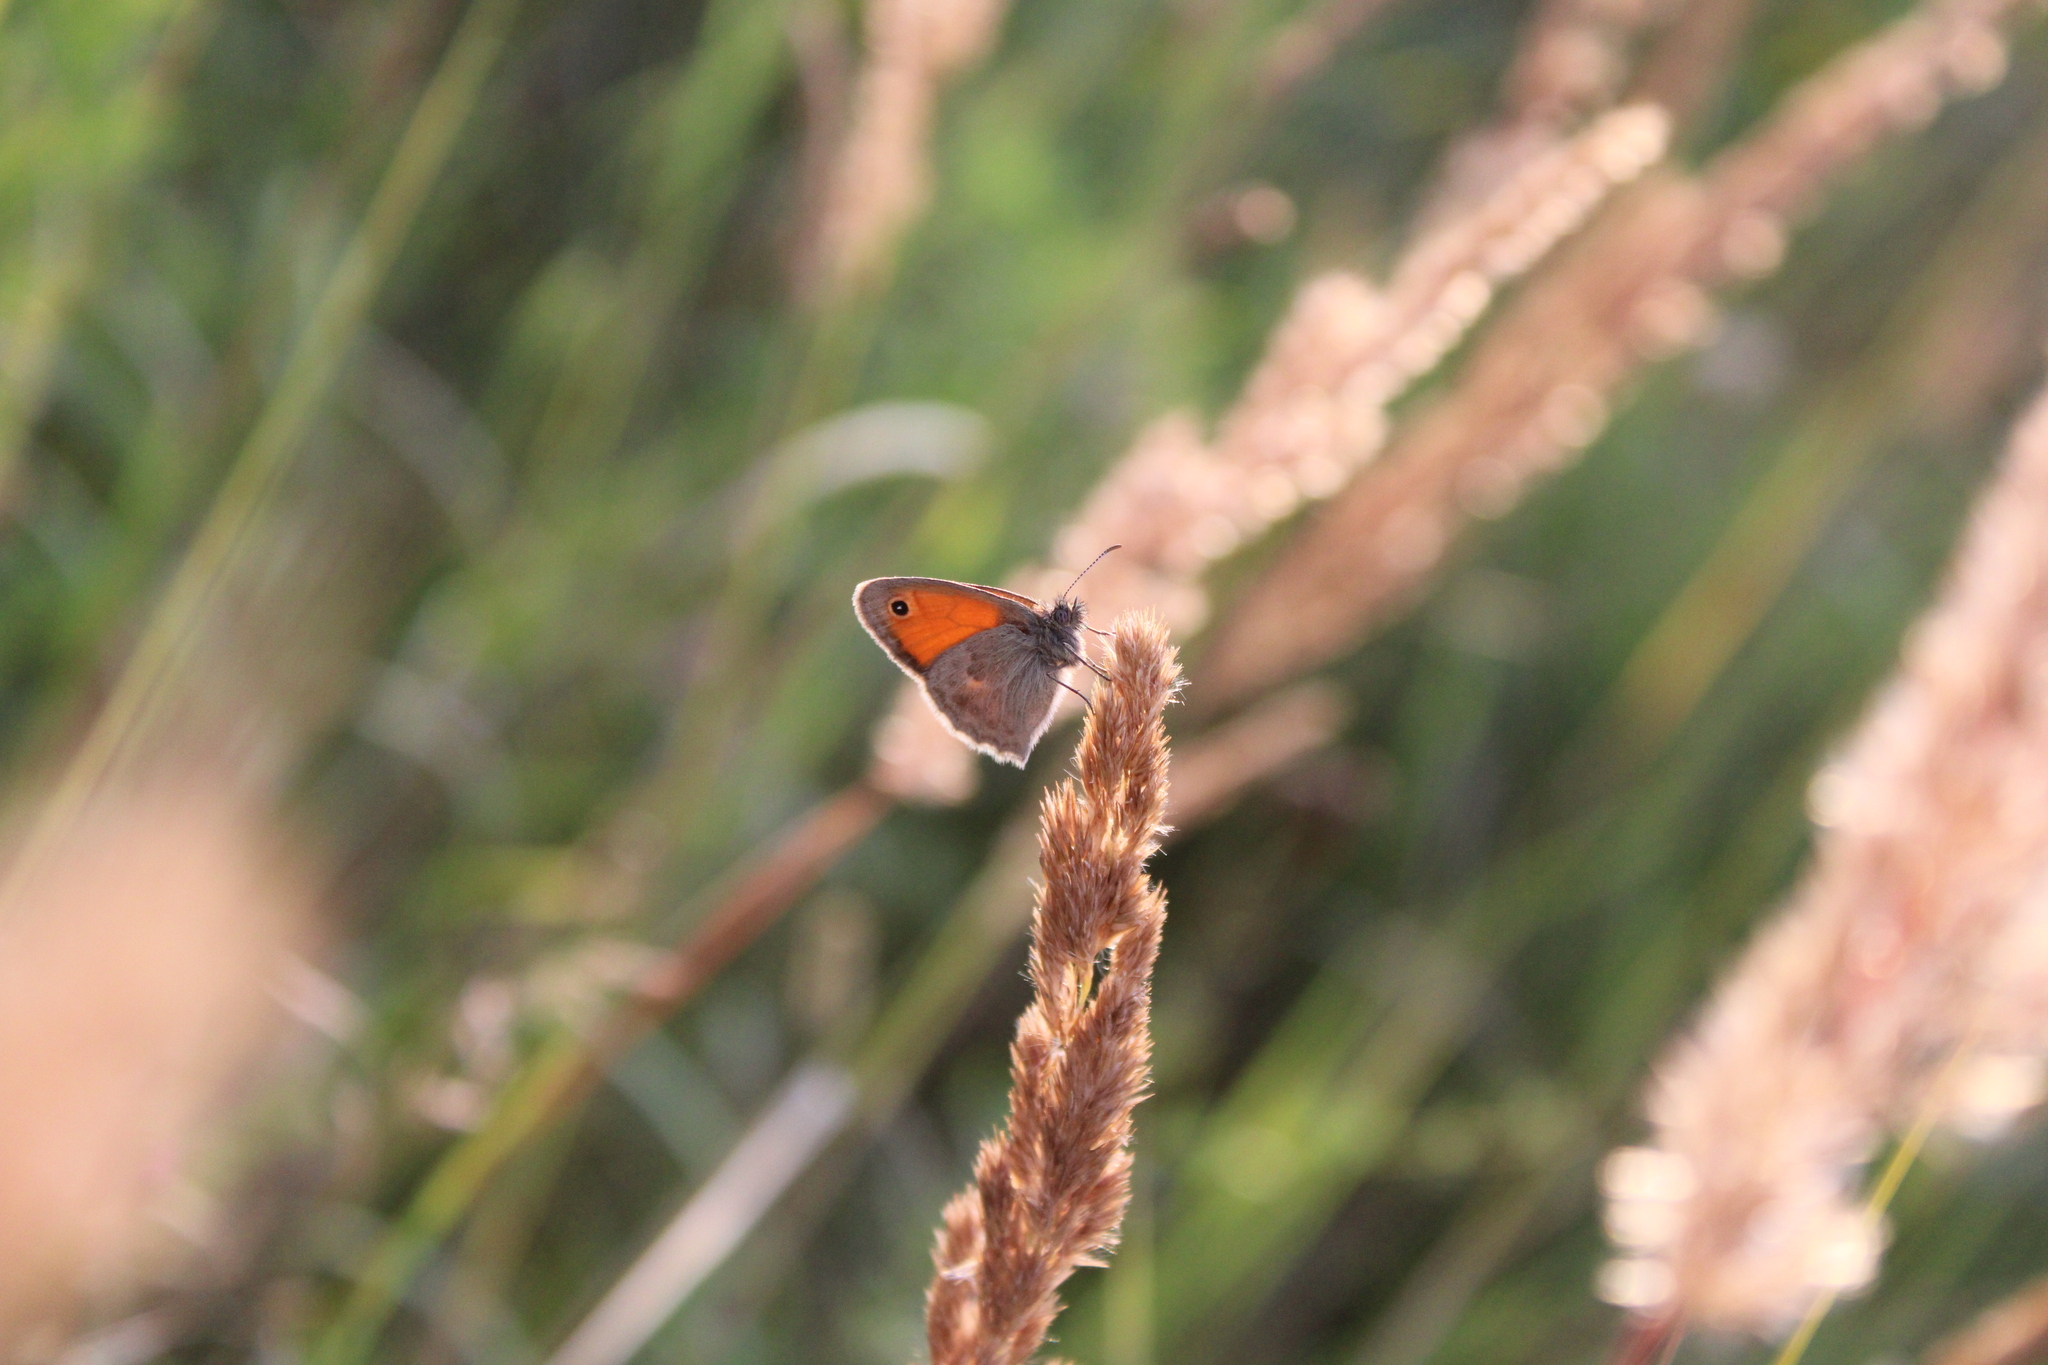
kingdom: Animalia
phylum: Arthropoda
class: Insecta
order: Lepidoptera
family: Nymphalidae
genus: Coenonympha
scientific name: Coenonympha pamphilus
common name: Small heath
